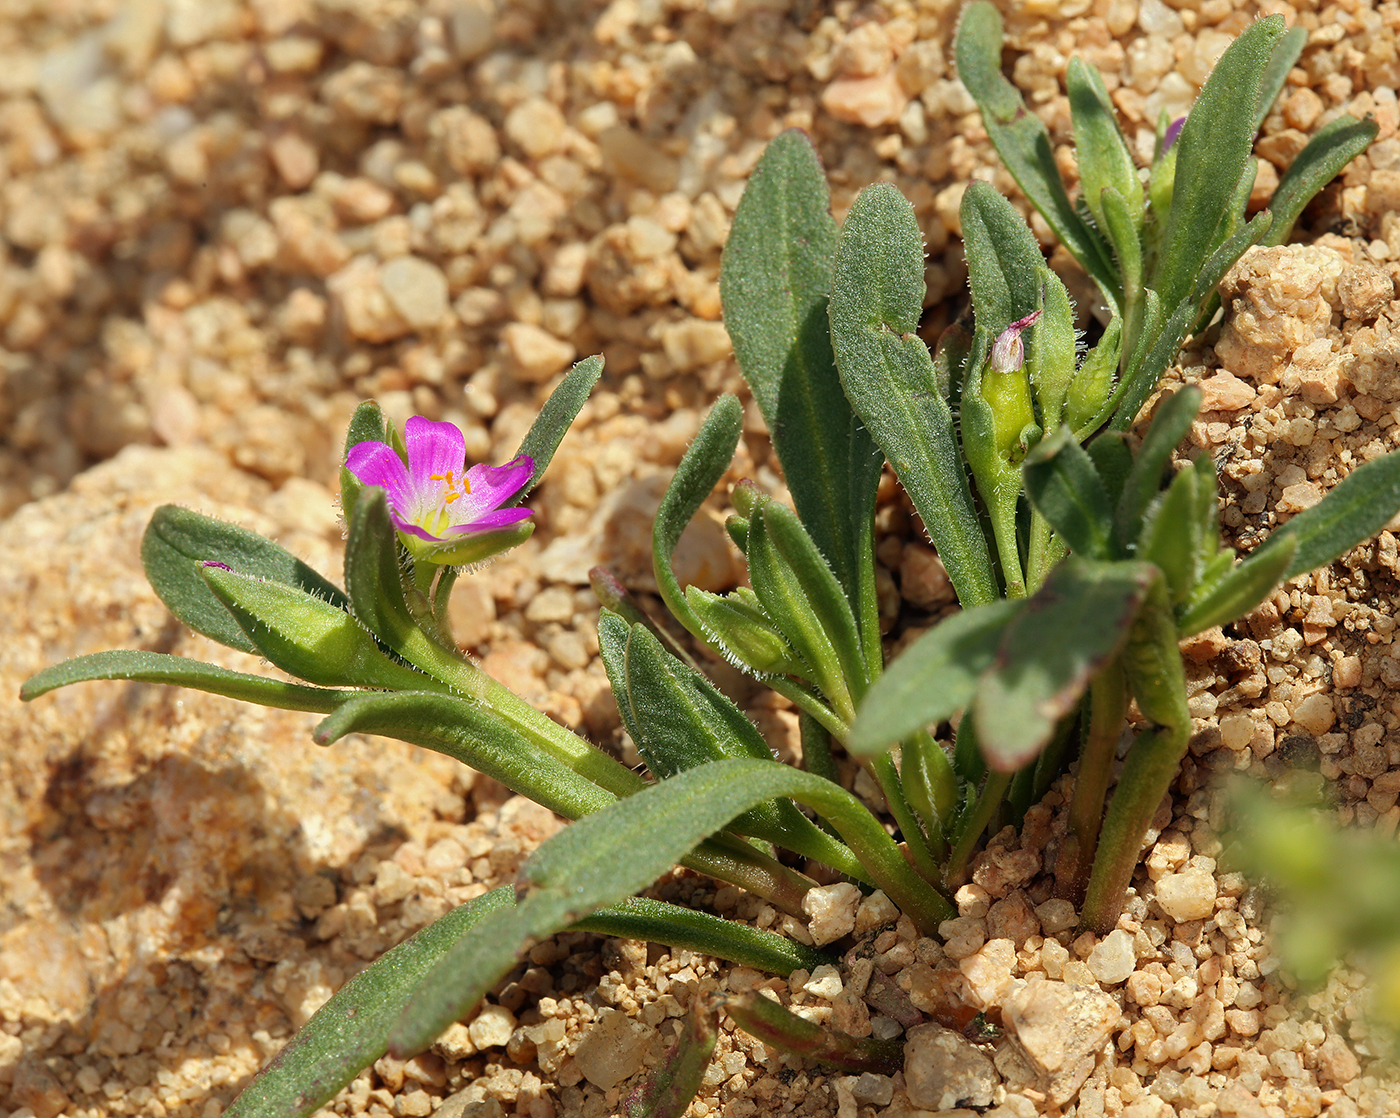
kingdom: Plantae
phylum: Tracheophyta
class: Magnoliopsida
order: Caryophyllales
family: Montiaceae
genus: Calandrinia
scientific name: Calandrinia menziesii
